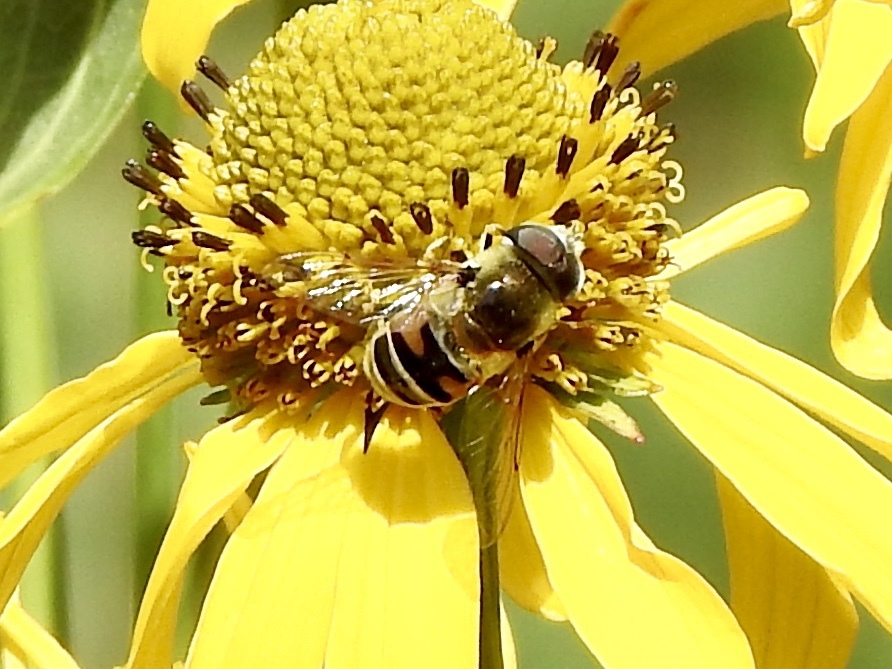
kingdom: Animalia
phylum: Arthropoda
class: Insecta
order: Diptera
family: Syrphidae
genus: Eoseristalis
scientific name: Eoseristalis
